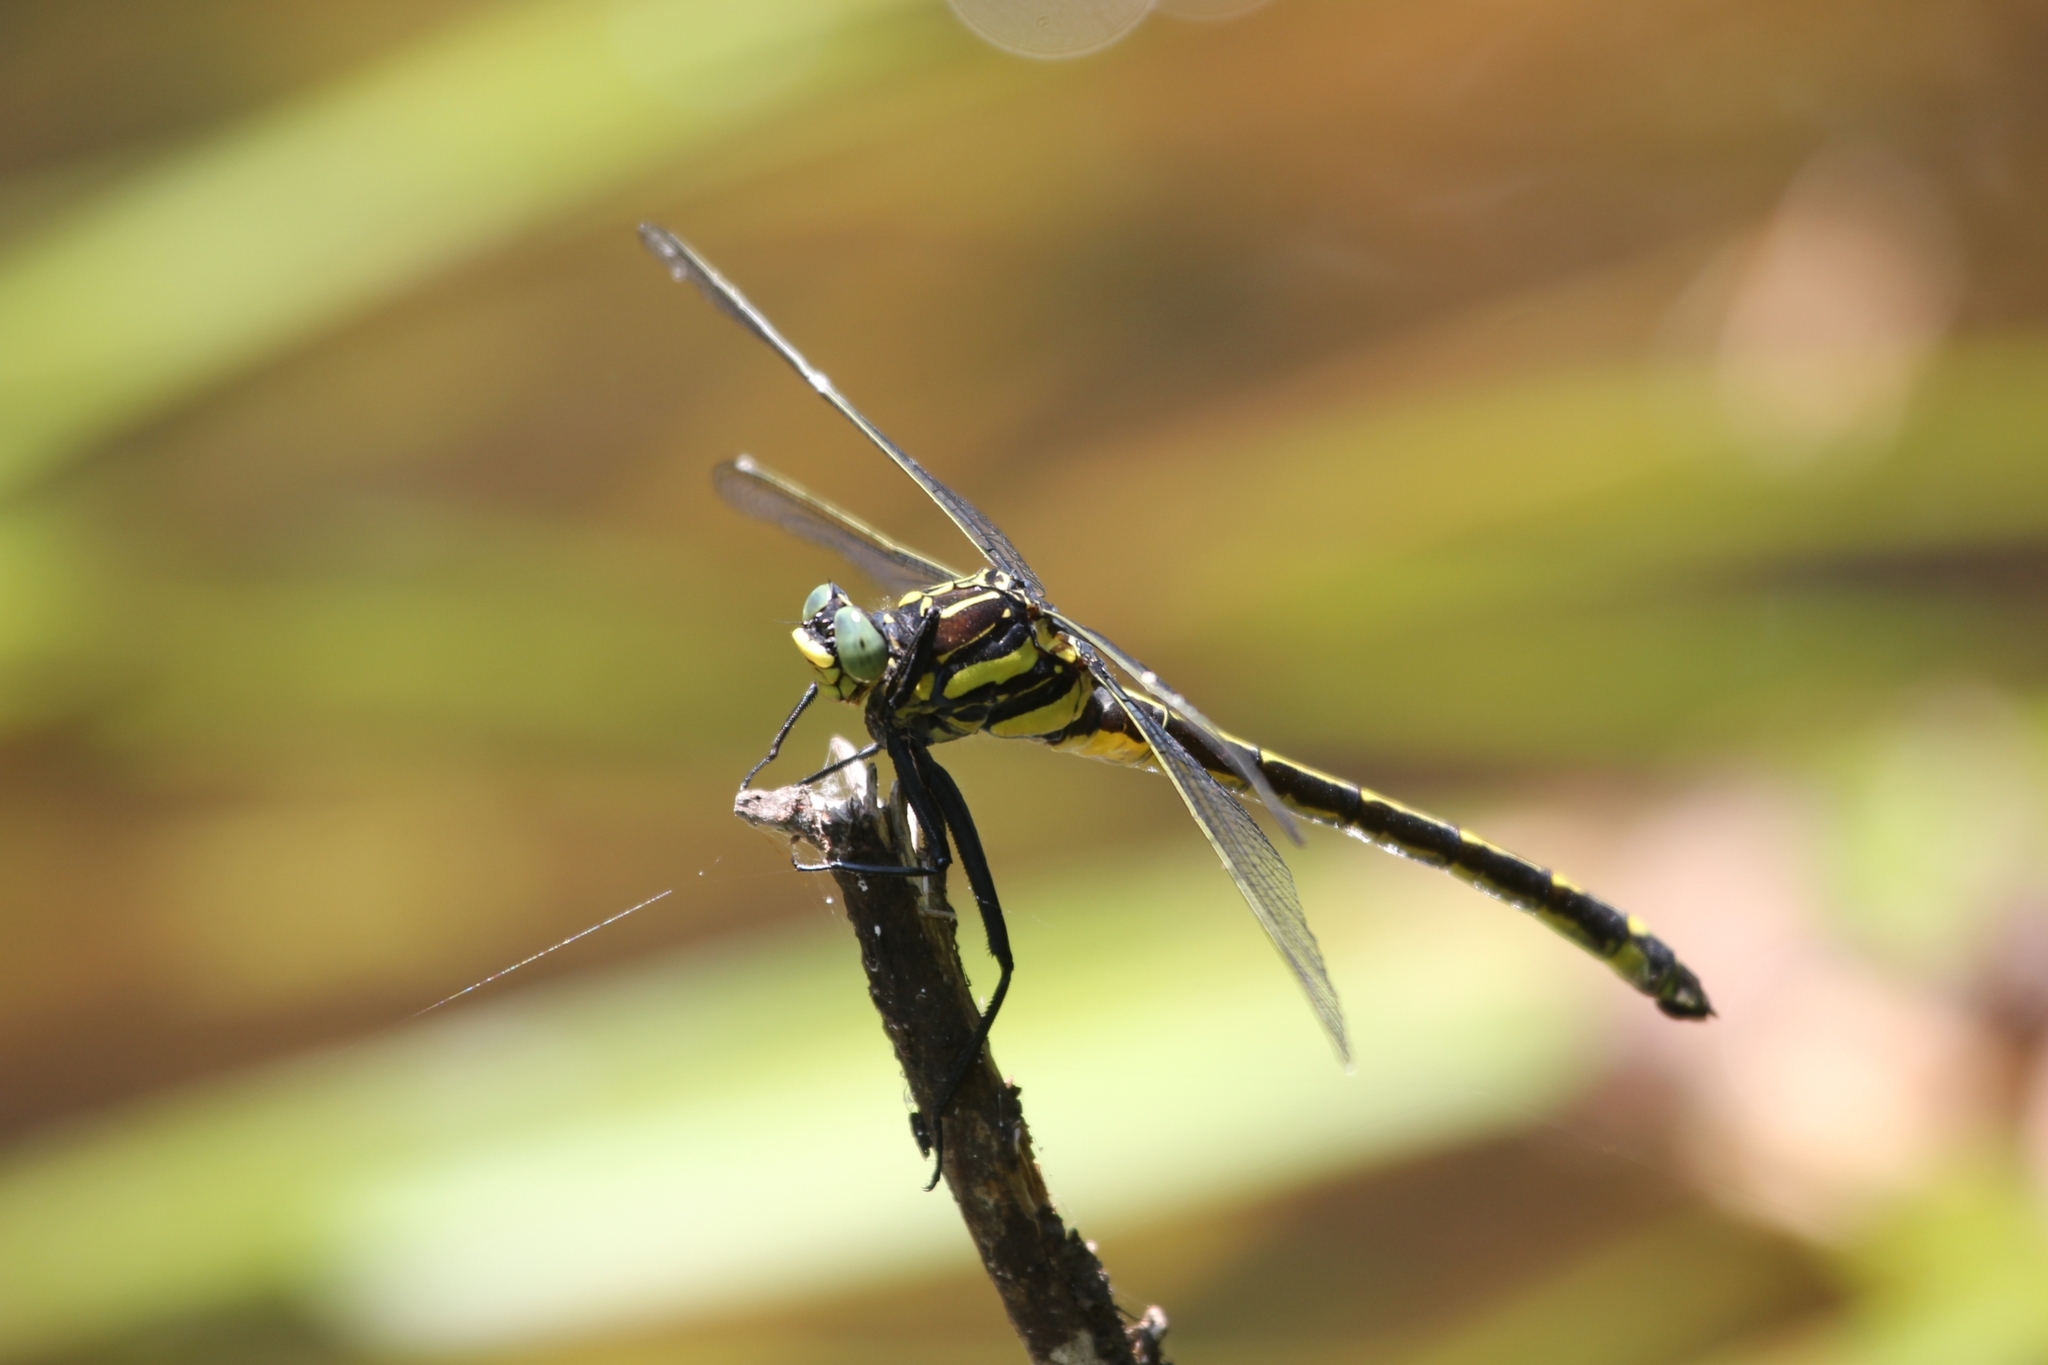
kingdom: Animalia
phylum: Arthropoda
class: Insecta
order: Odonata
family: Gomphidae
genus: Hagenius
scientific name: Hagenius brevistylus
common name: Dragonhunter
